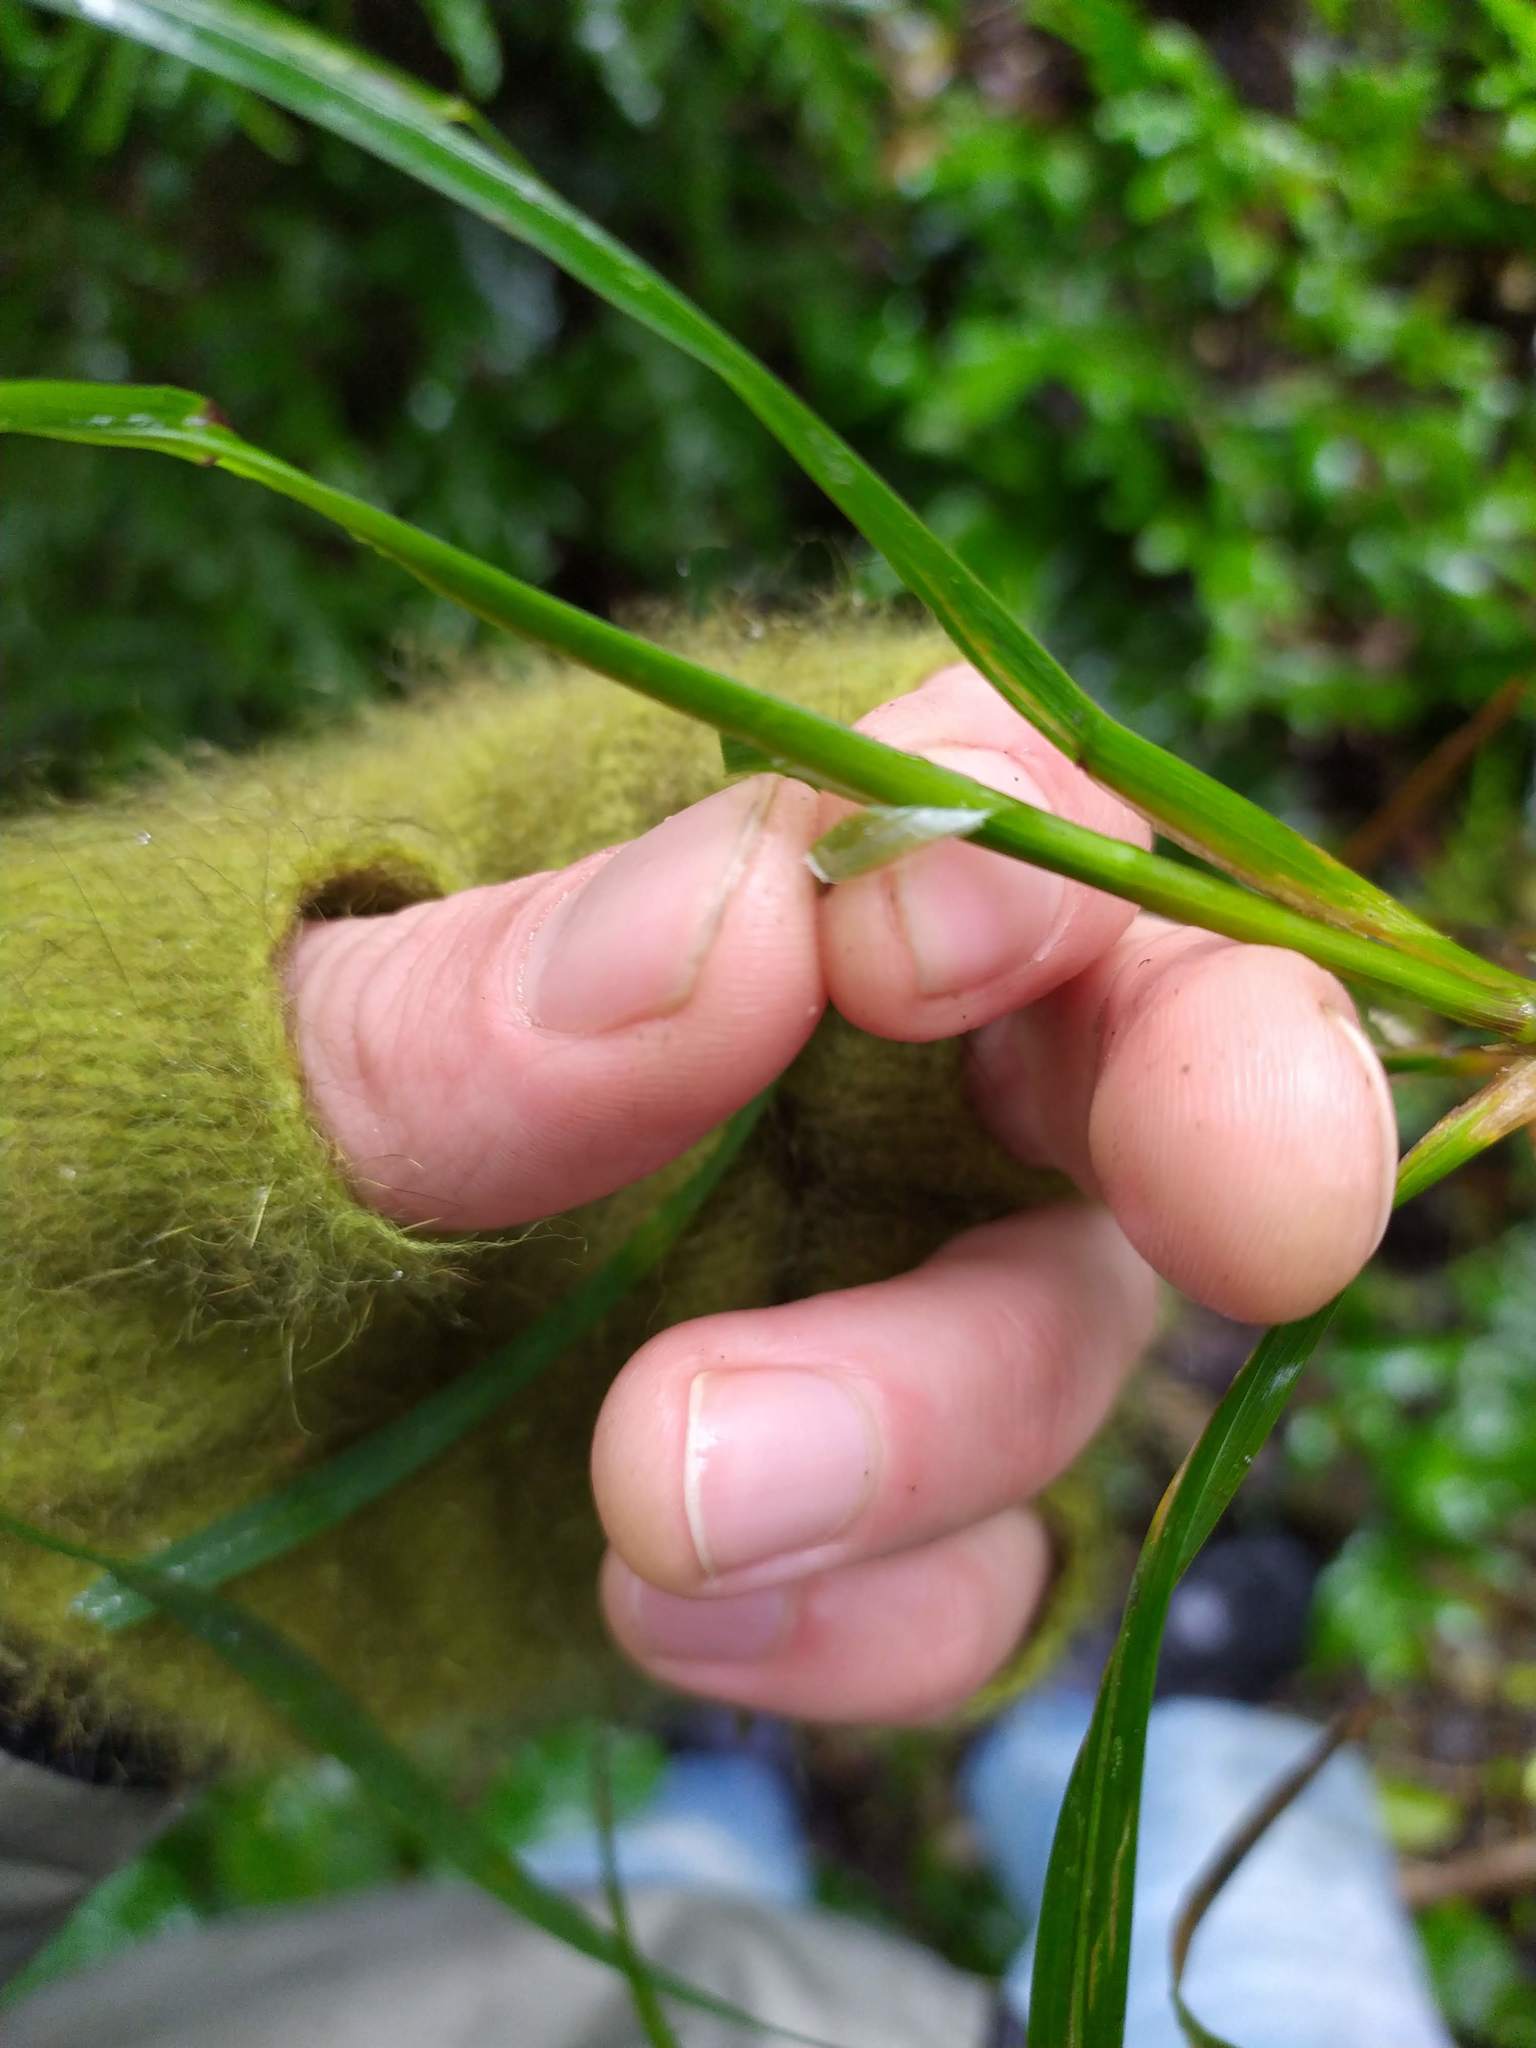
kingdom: Plantae
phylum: Tracheophyta
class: Liliopsida
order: Poales
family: Poaceae
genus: Poa
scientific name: Poa anceps
